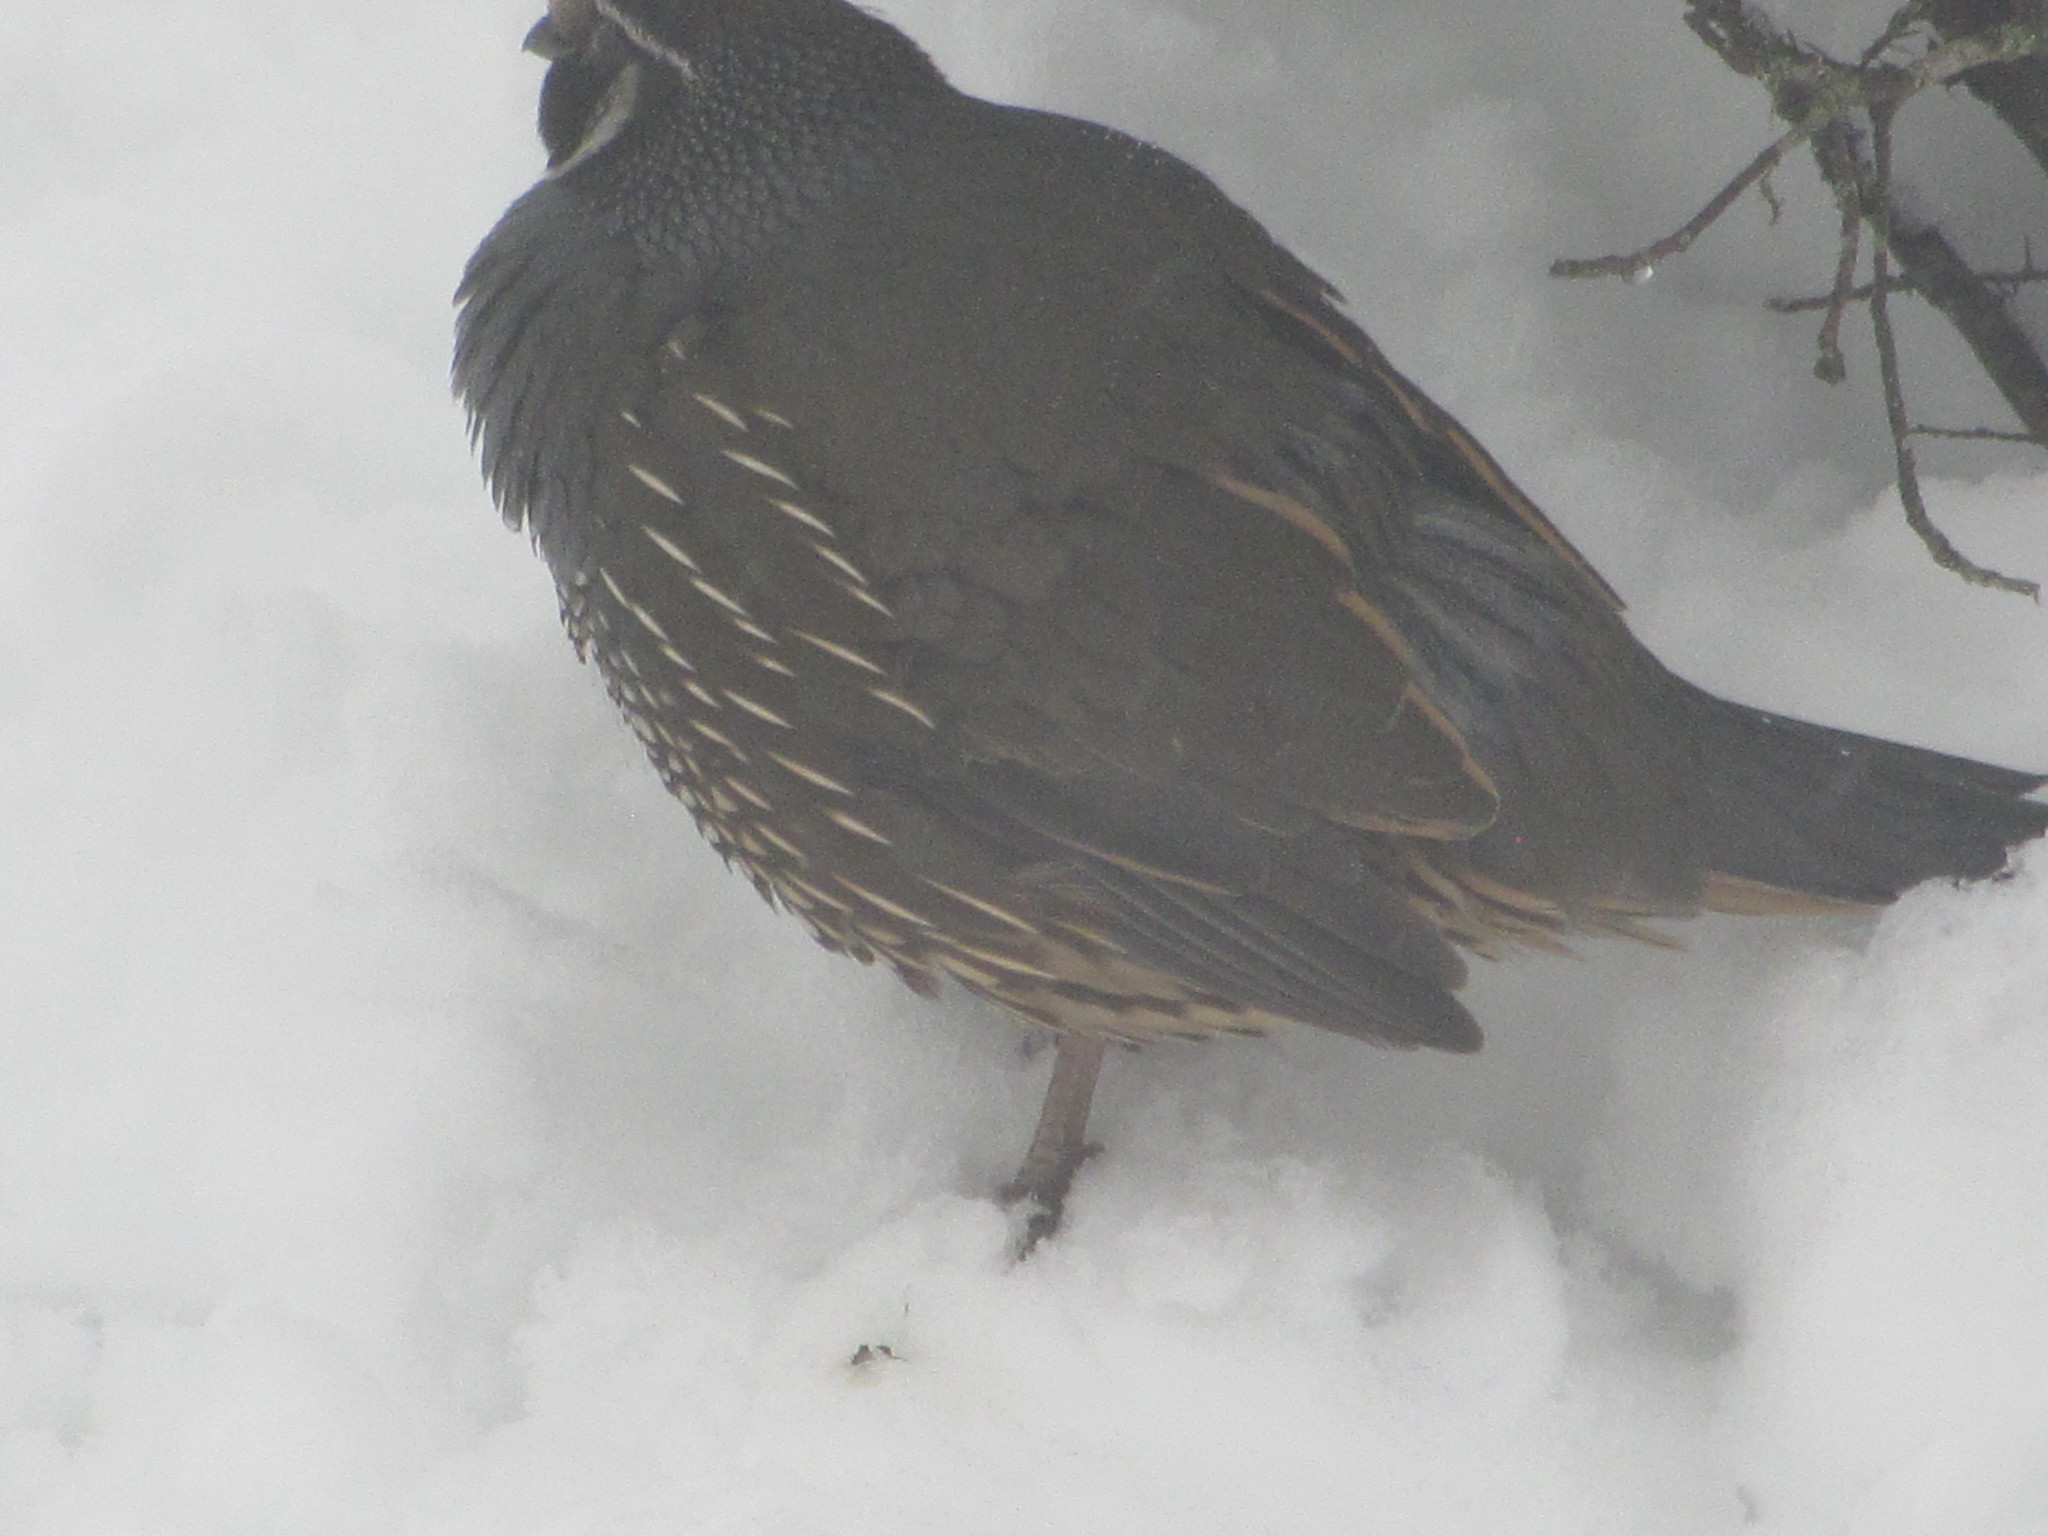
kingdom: Animalia
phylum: Chordata
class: Aves
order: Galliformes
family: Odontophoridae
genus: Callipepla
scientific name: Callipepla californica
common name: California quail
